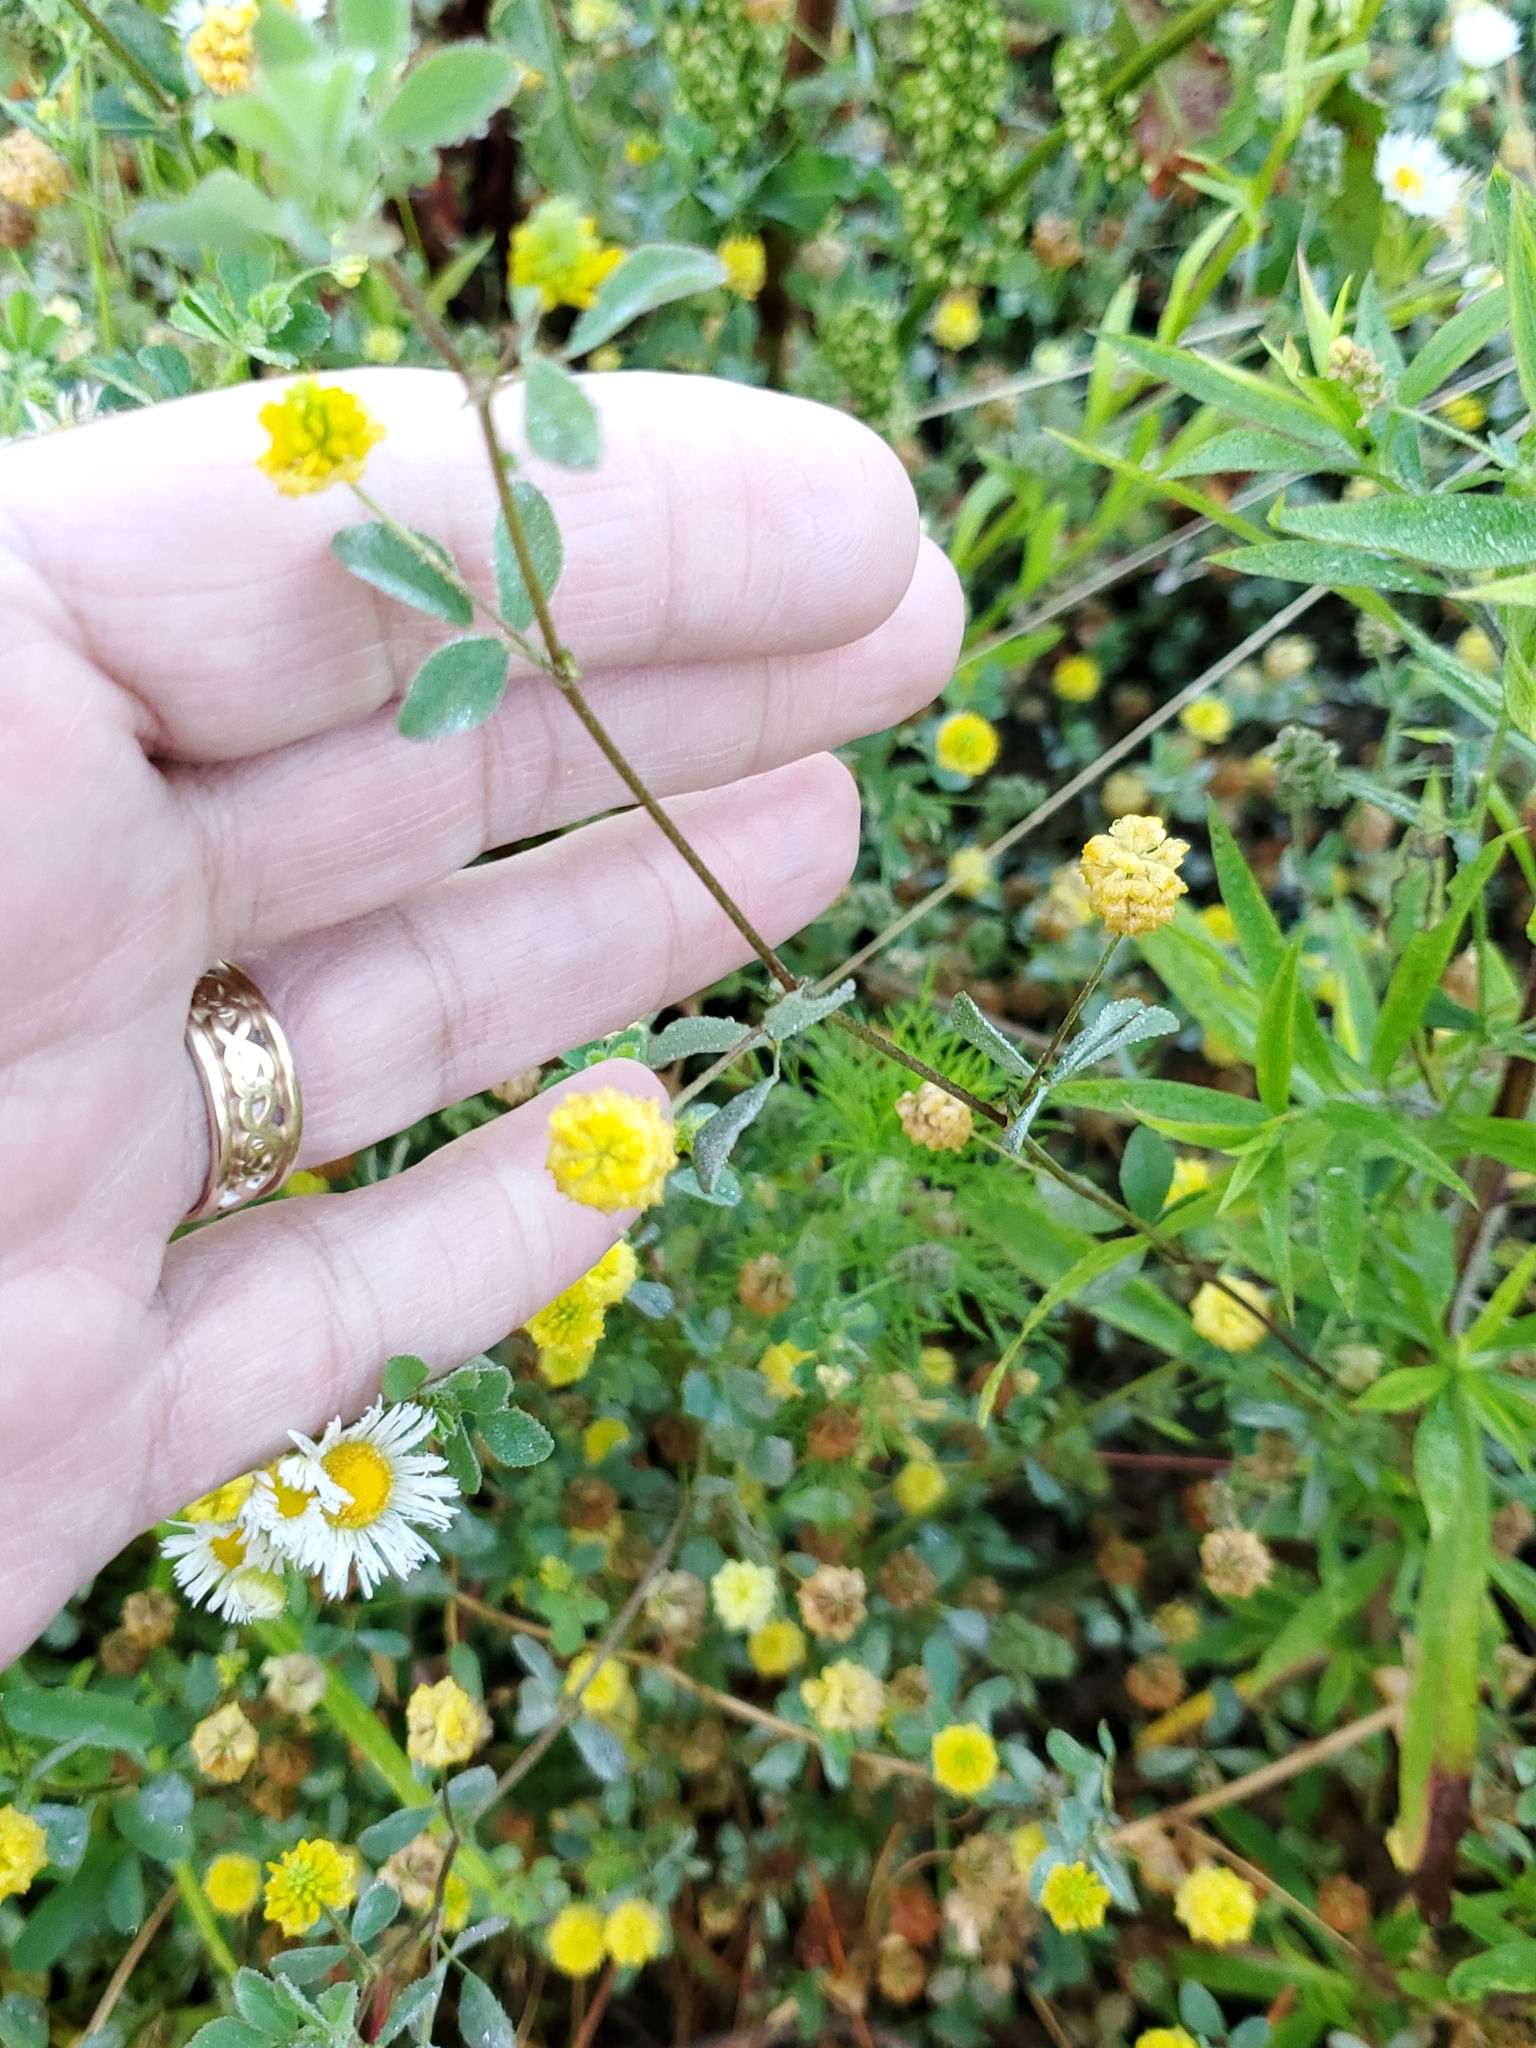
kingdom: Plantae
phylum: Tracheophyta
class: Magnoliopsida
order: Fabales
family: Fabaceae
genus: Trifolium
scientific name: Trifolium campestre
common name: Field clover
